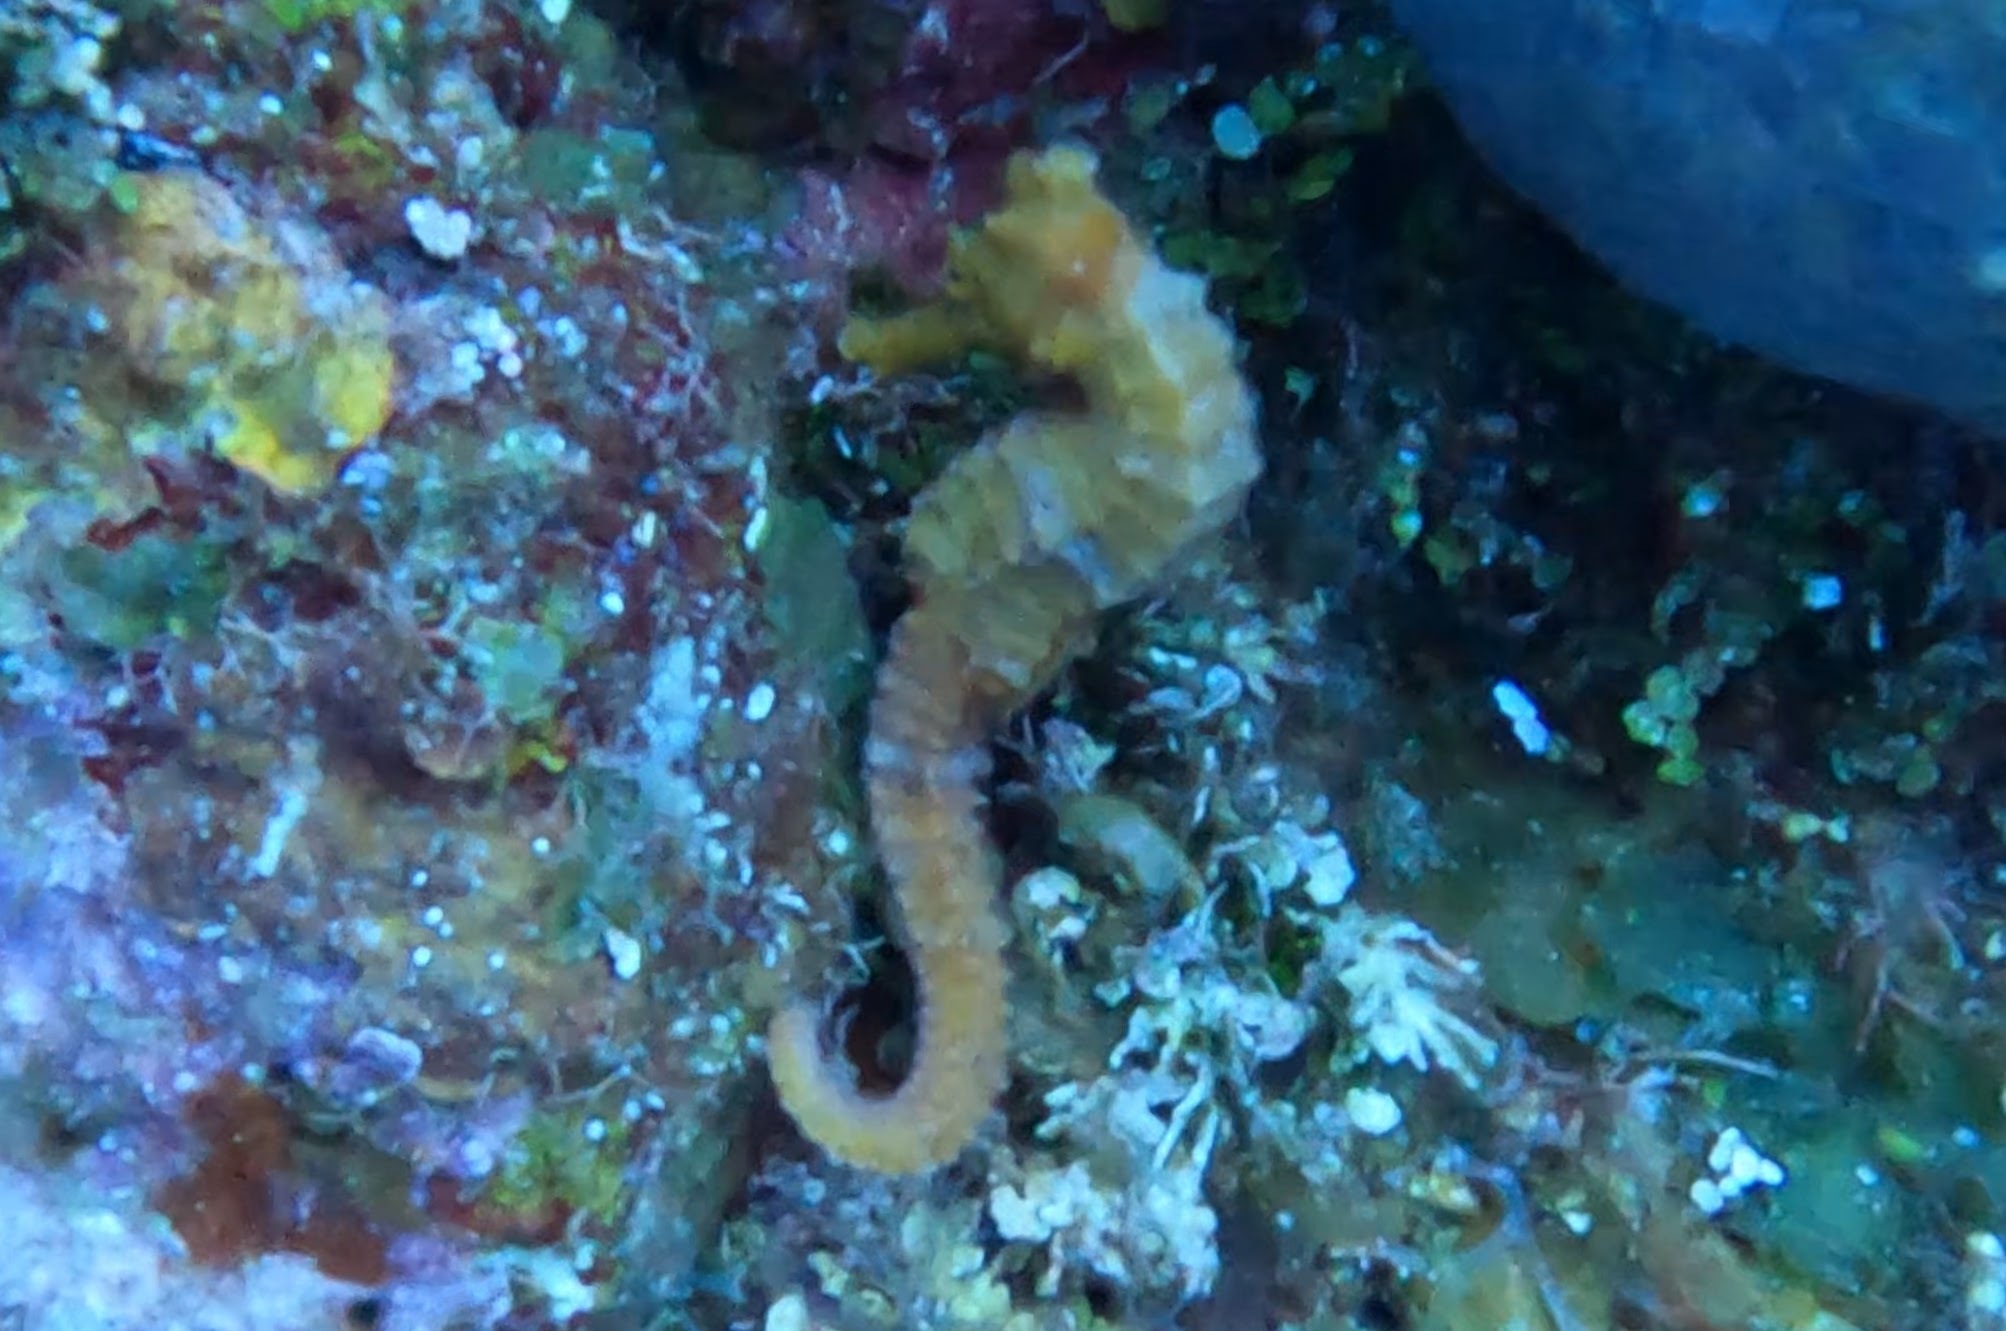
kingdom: Animalia
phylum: Chordata
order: Syngnathiformes
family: Syngnathidae
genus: Hippocampus
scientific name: Hippocampus reidi
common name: Slender seahorse
